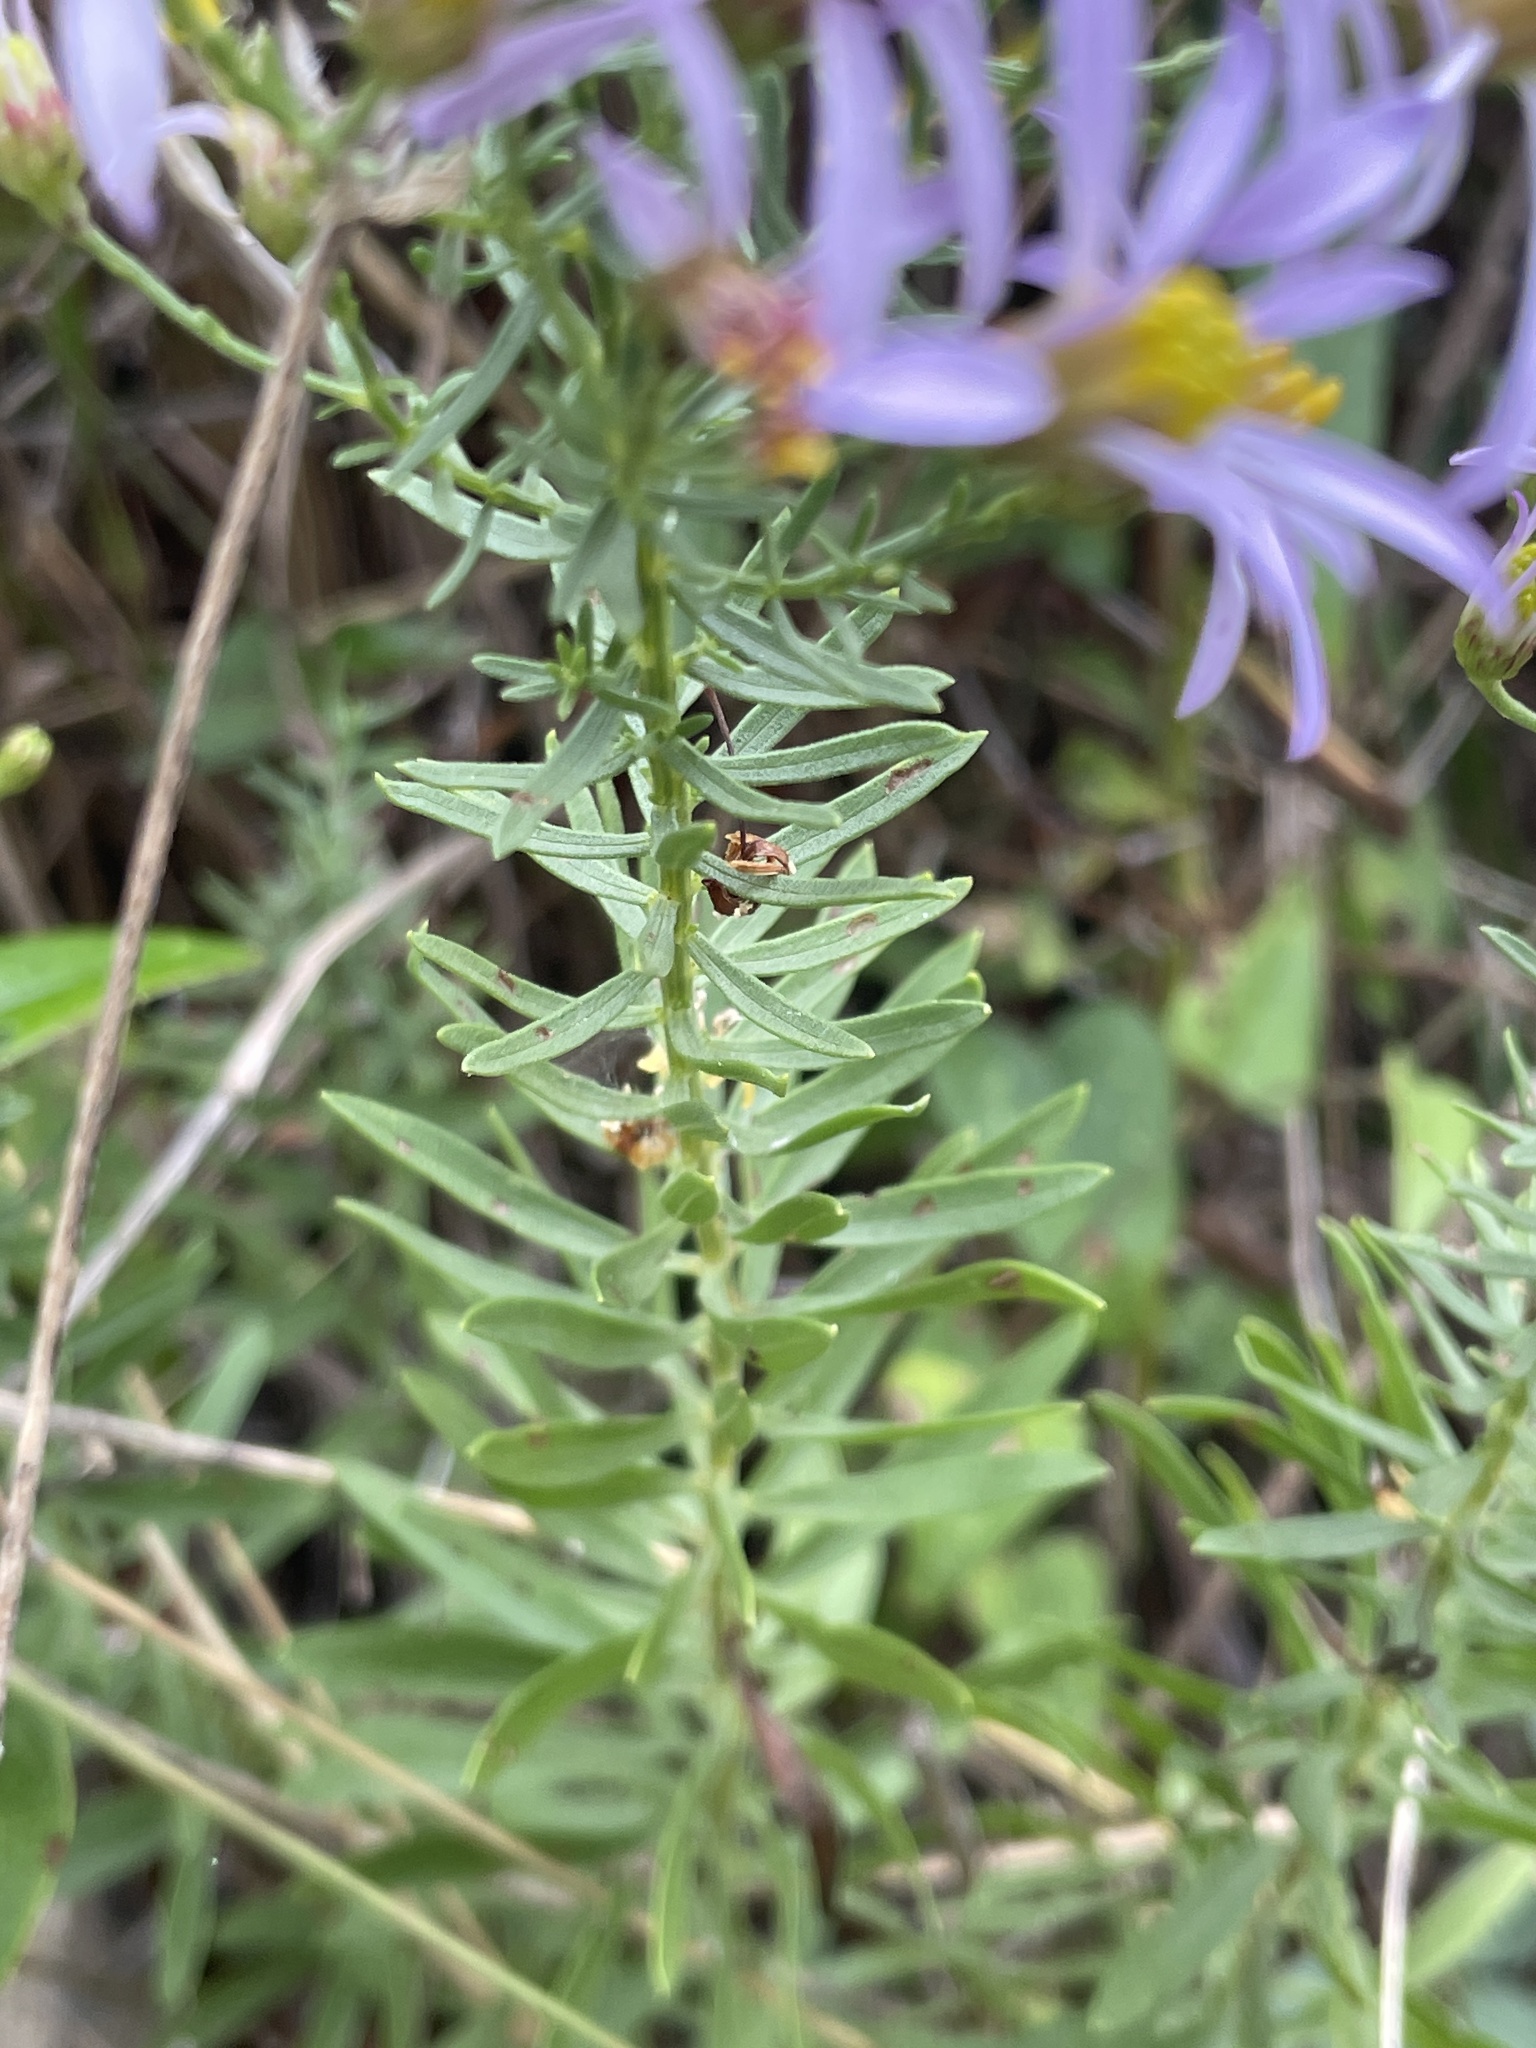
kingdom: Plantae
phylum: Tracheophyta
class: Magnoliopsida
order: Asterales
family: Asteraceae
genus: Galatella
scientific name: Galatella sedifolia
